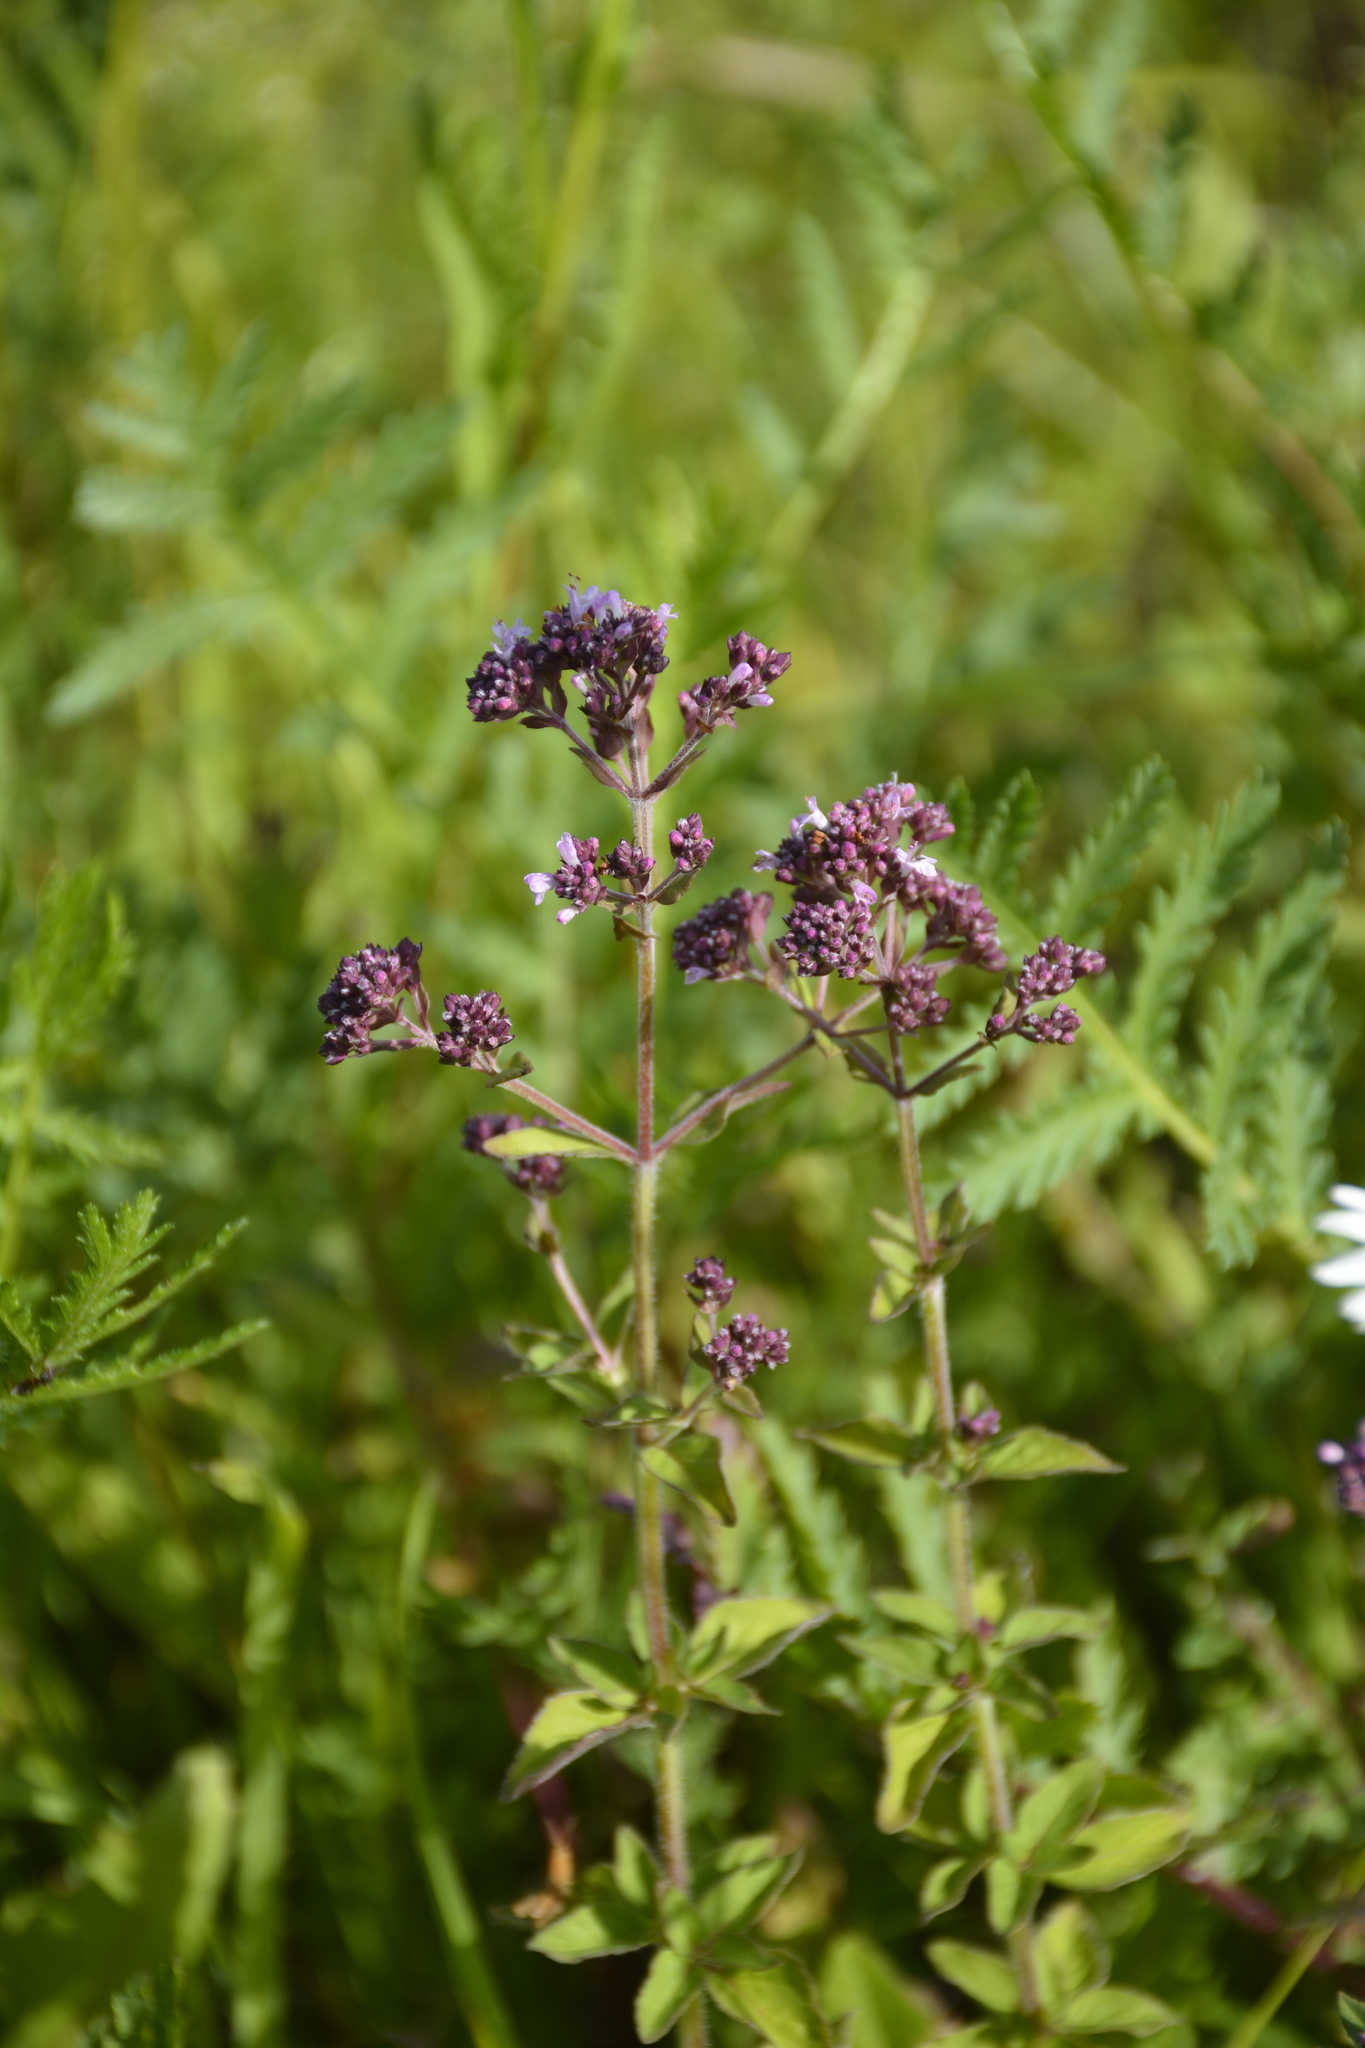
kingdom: Plantae
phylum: Tracheophyta
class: Magnoliopsida
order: Lamiales
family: Lamiaceae
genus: Origanum
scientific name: Origanum vulgare
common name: Wild marjoram
